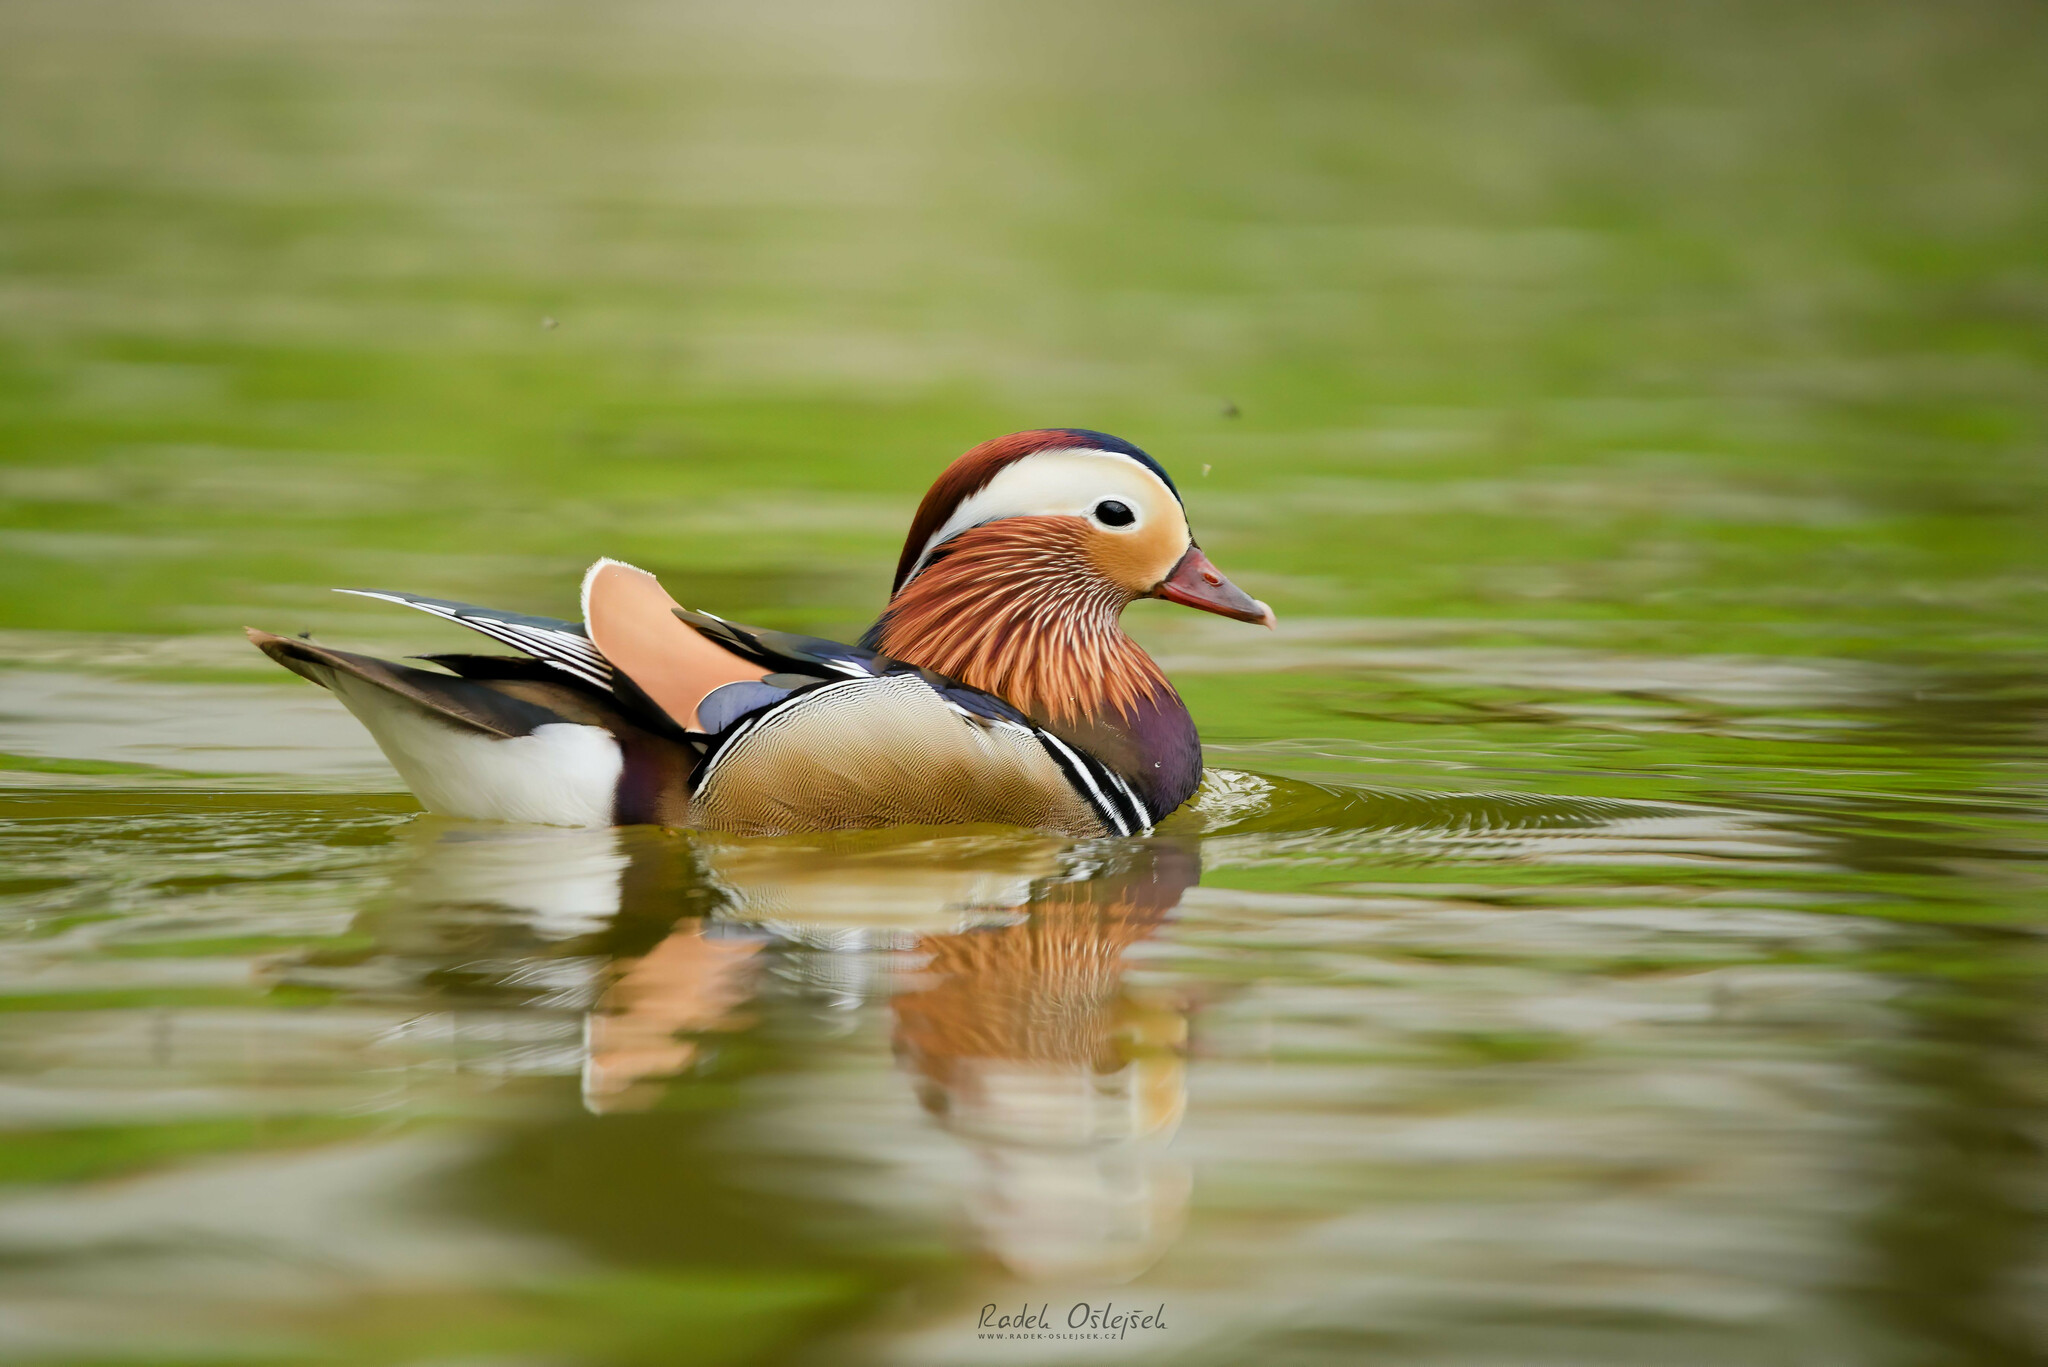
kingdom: Animalia
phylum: Chordata
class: Aves
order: Anseriformes
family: Anatidae
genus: Aix
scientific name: Aix galericulata
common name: Mandarin duck
